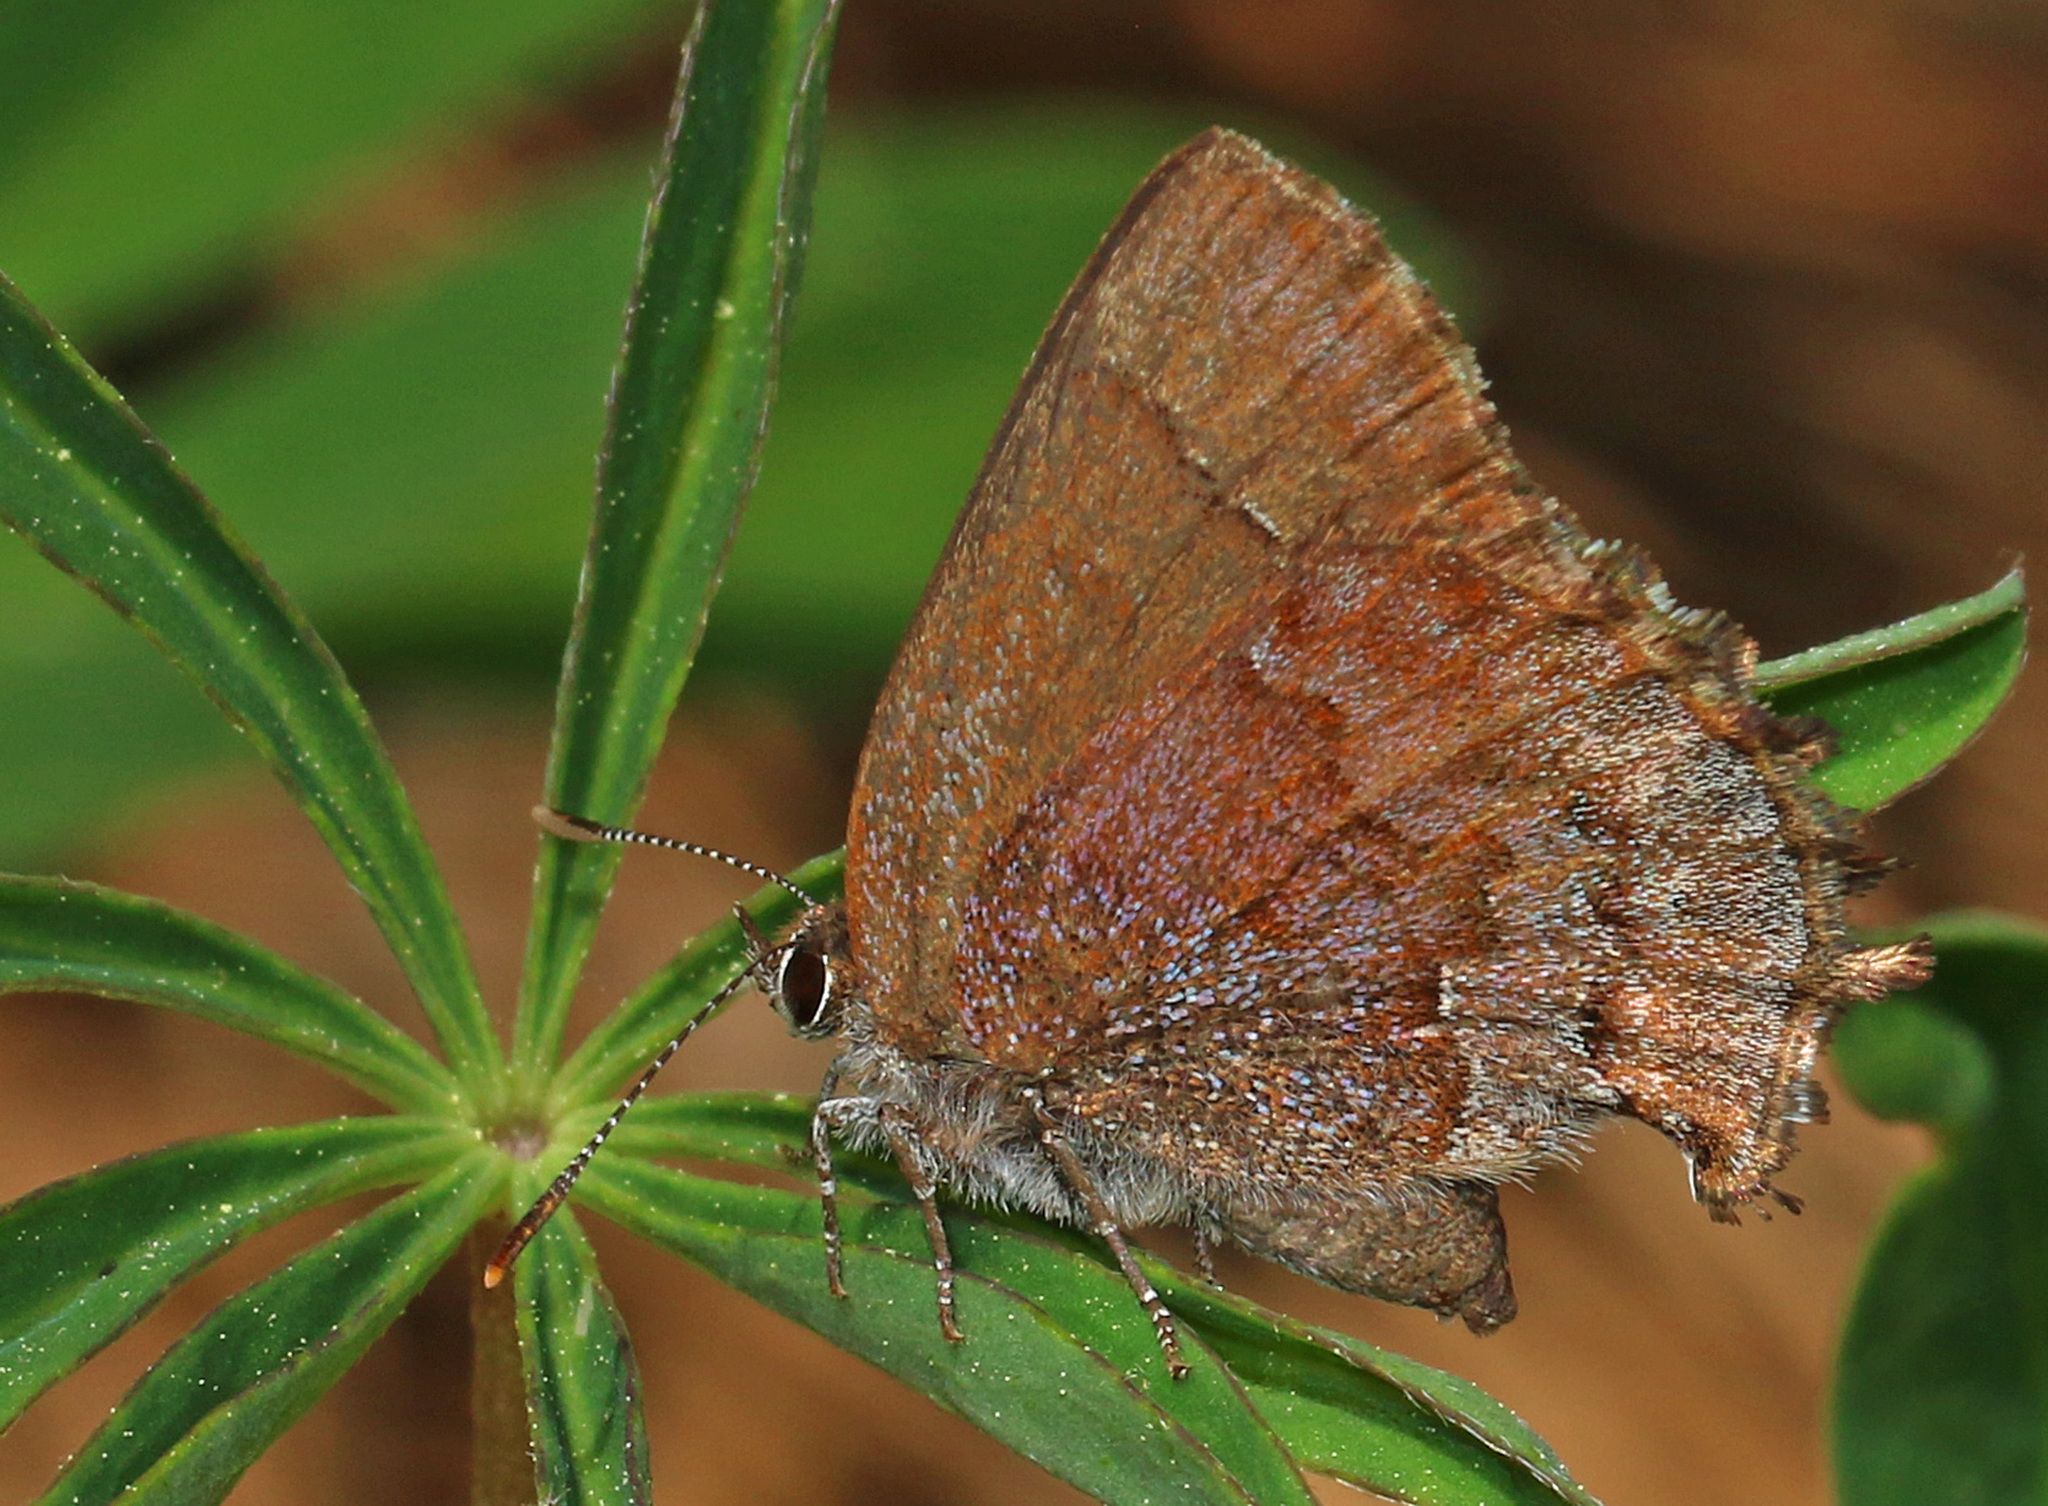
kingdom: Animalia
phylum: Arthropoda
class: Insecta
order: Lepidoptera
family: Lycaenidae
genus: Thecla
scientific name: Thecla irus
